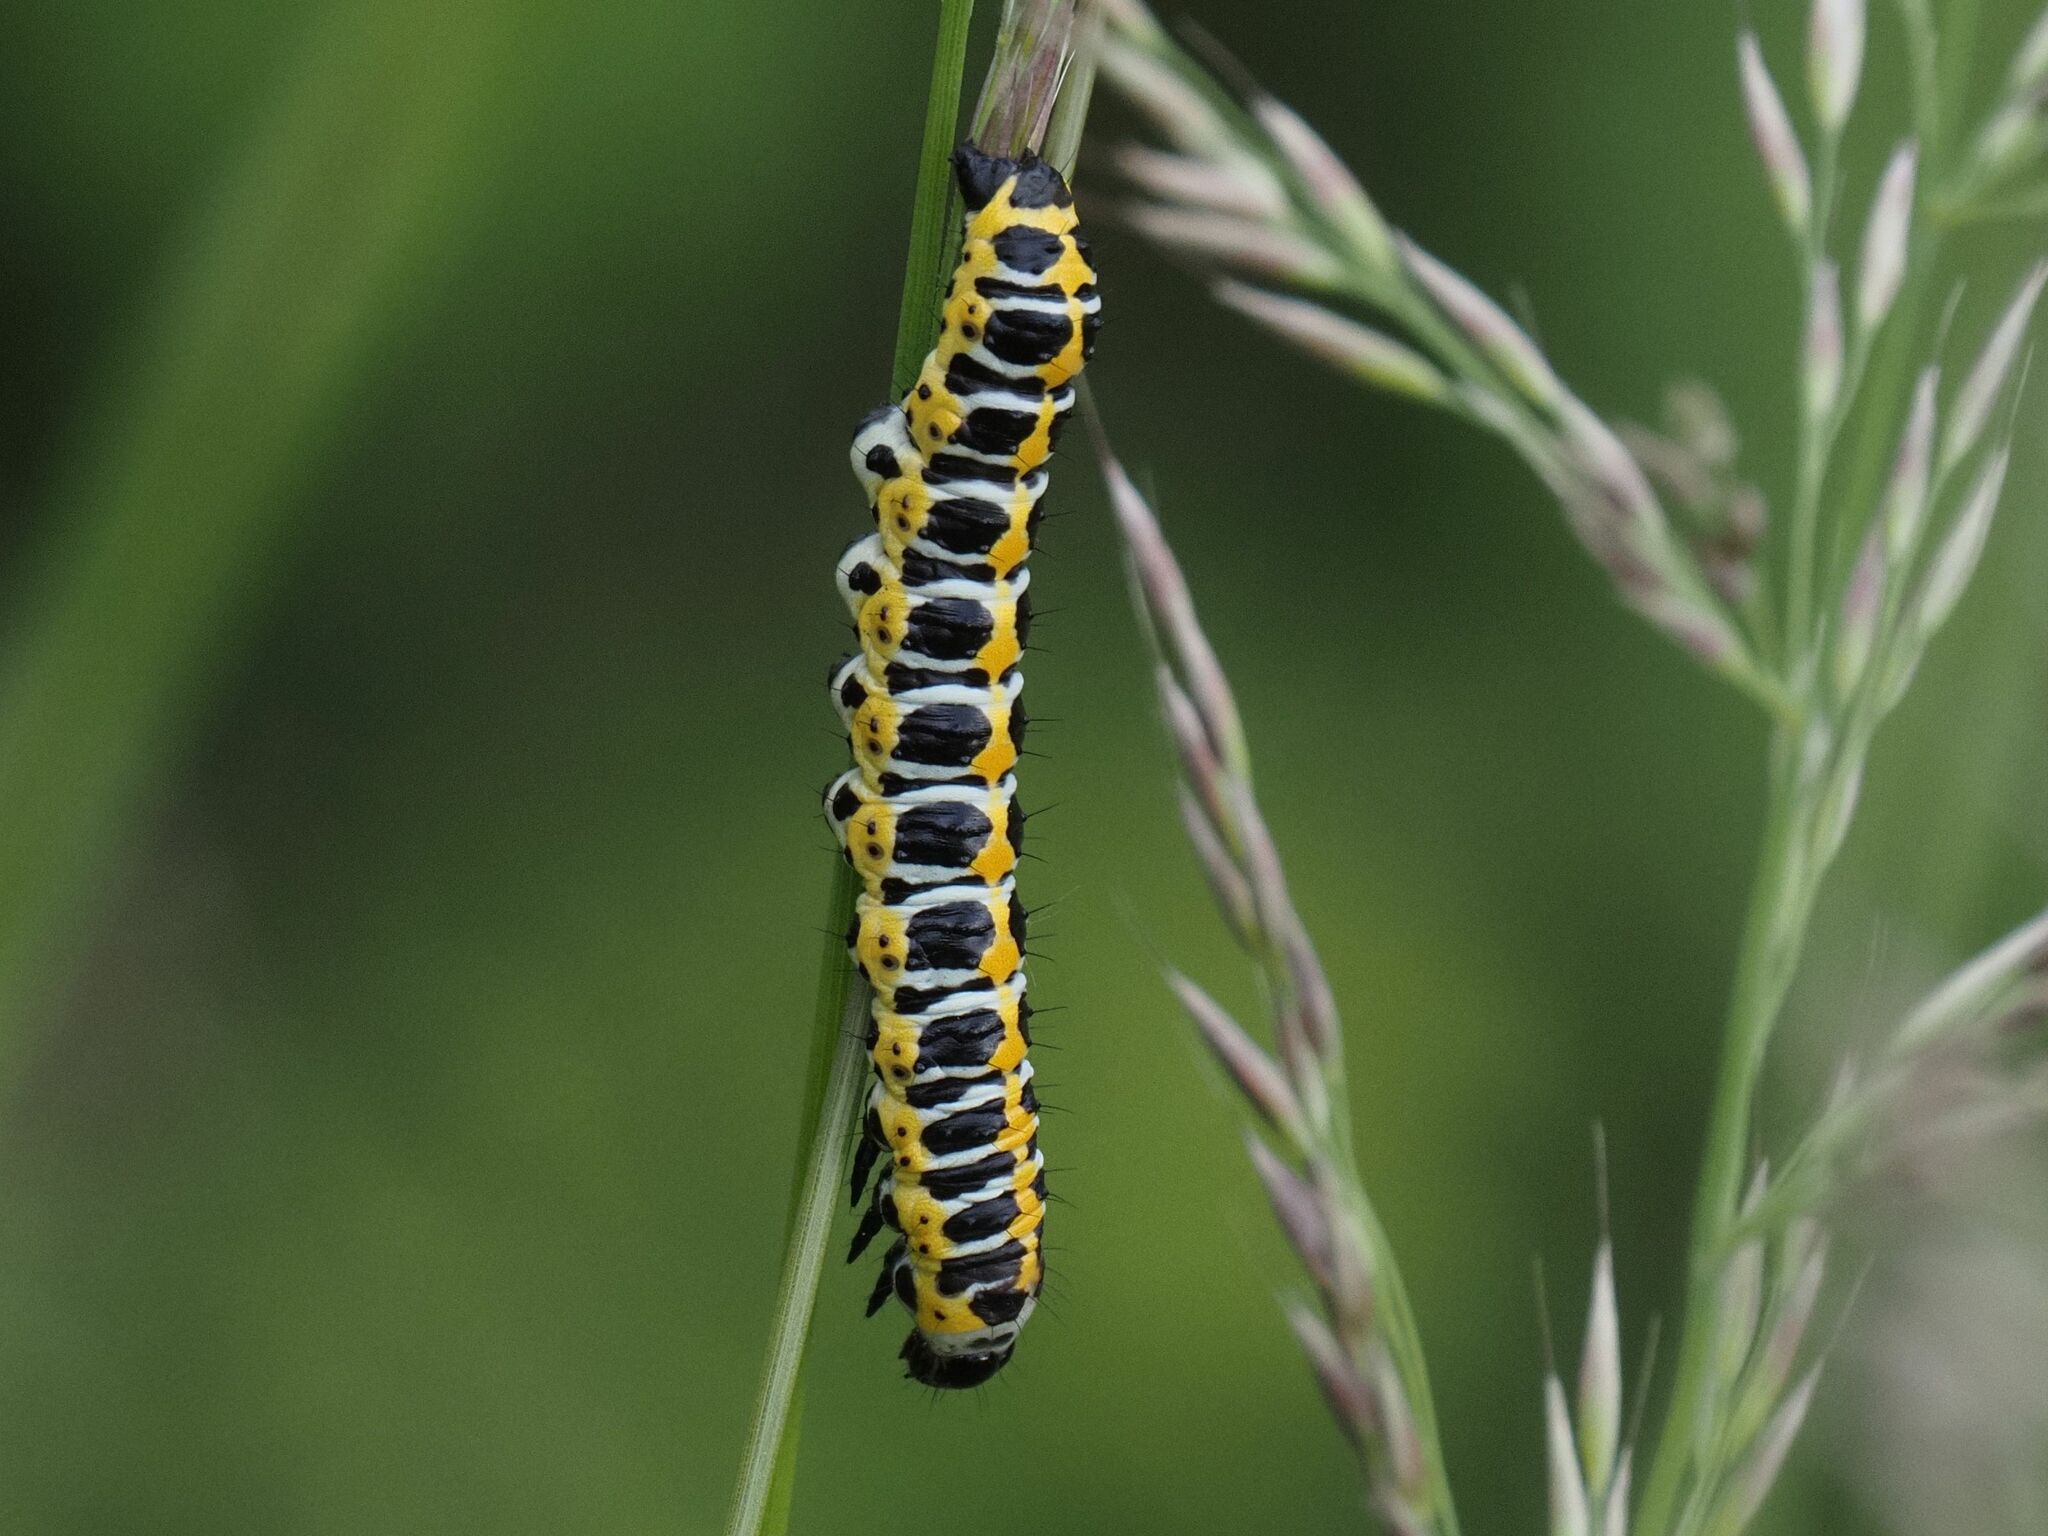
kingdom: Animalia
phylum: Arthropoda
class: Insecta
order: Lepidoptera
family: Noctuidae
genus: Cucullia
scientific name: Cucullia lactucae
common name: Lettuce shark
